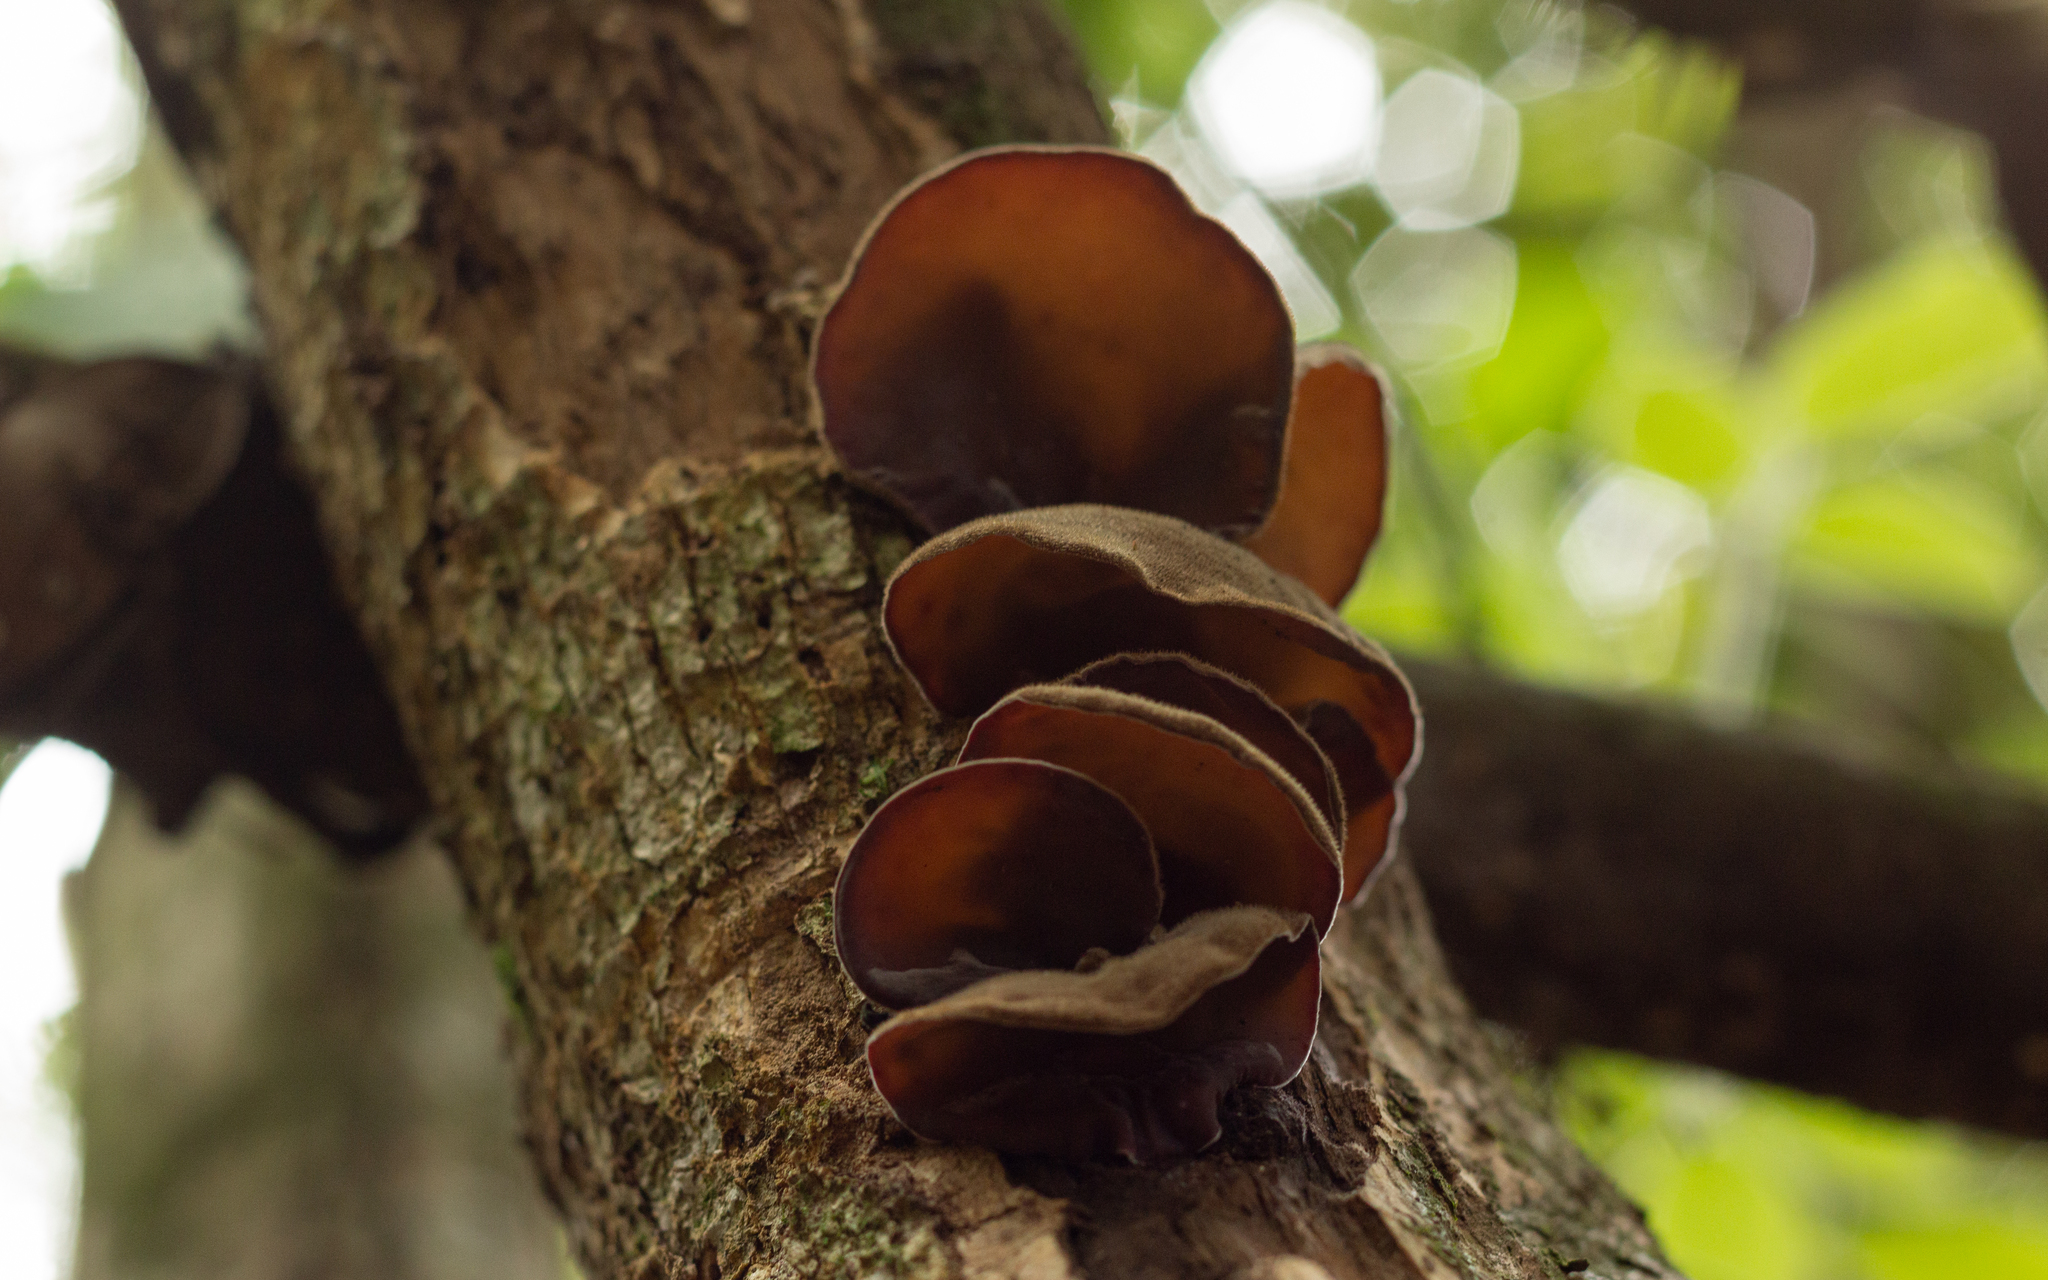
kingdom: Fungi
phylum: Basidiomycota
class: Agaricomycetes
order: Auriculariales
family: Auriculariaceae
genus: Auricularia
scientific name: Auricularia cornea
